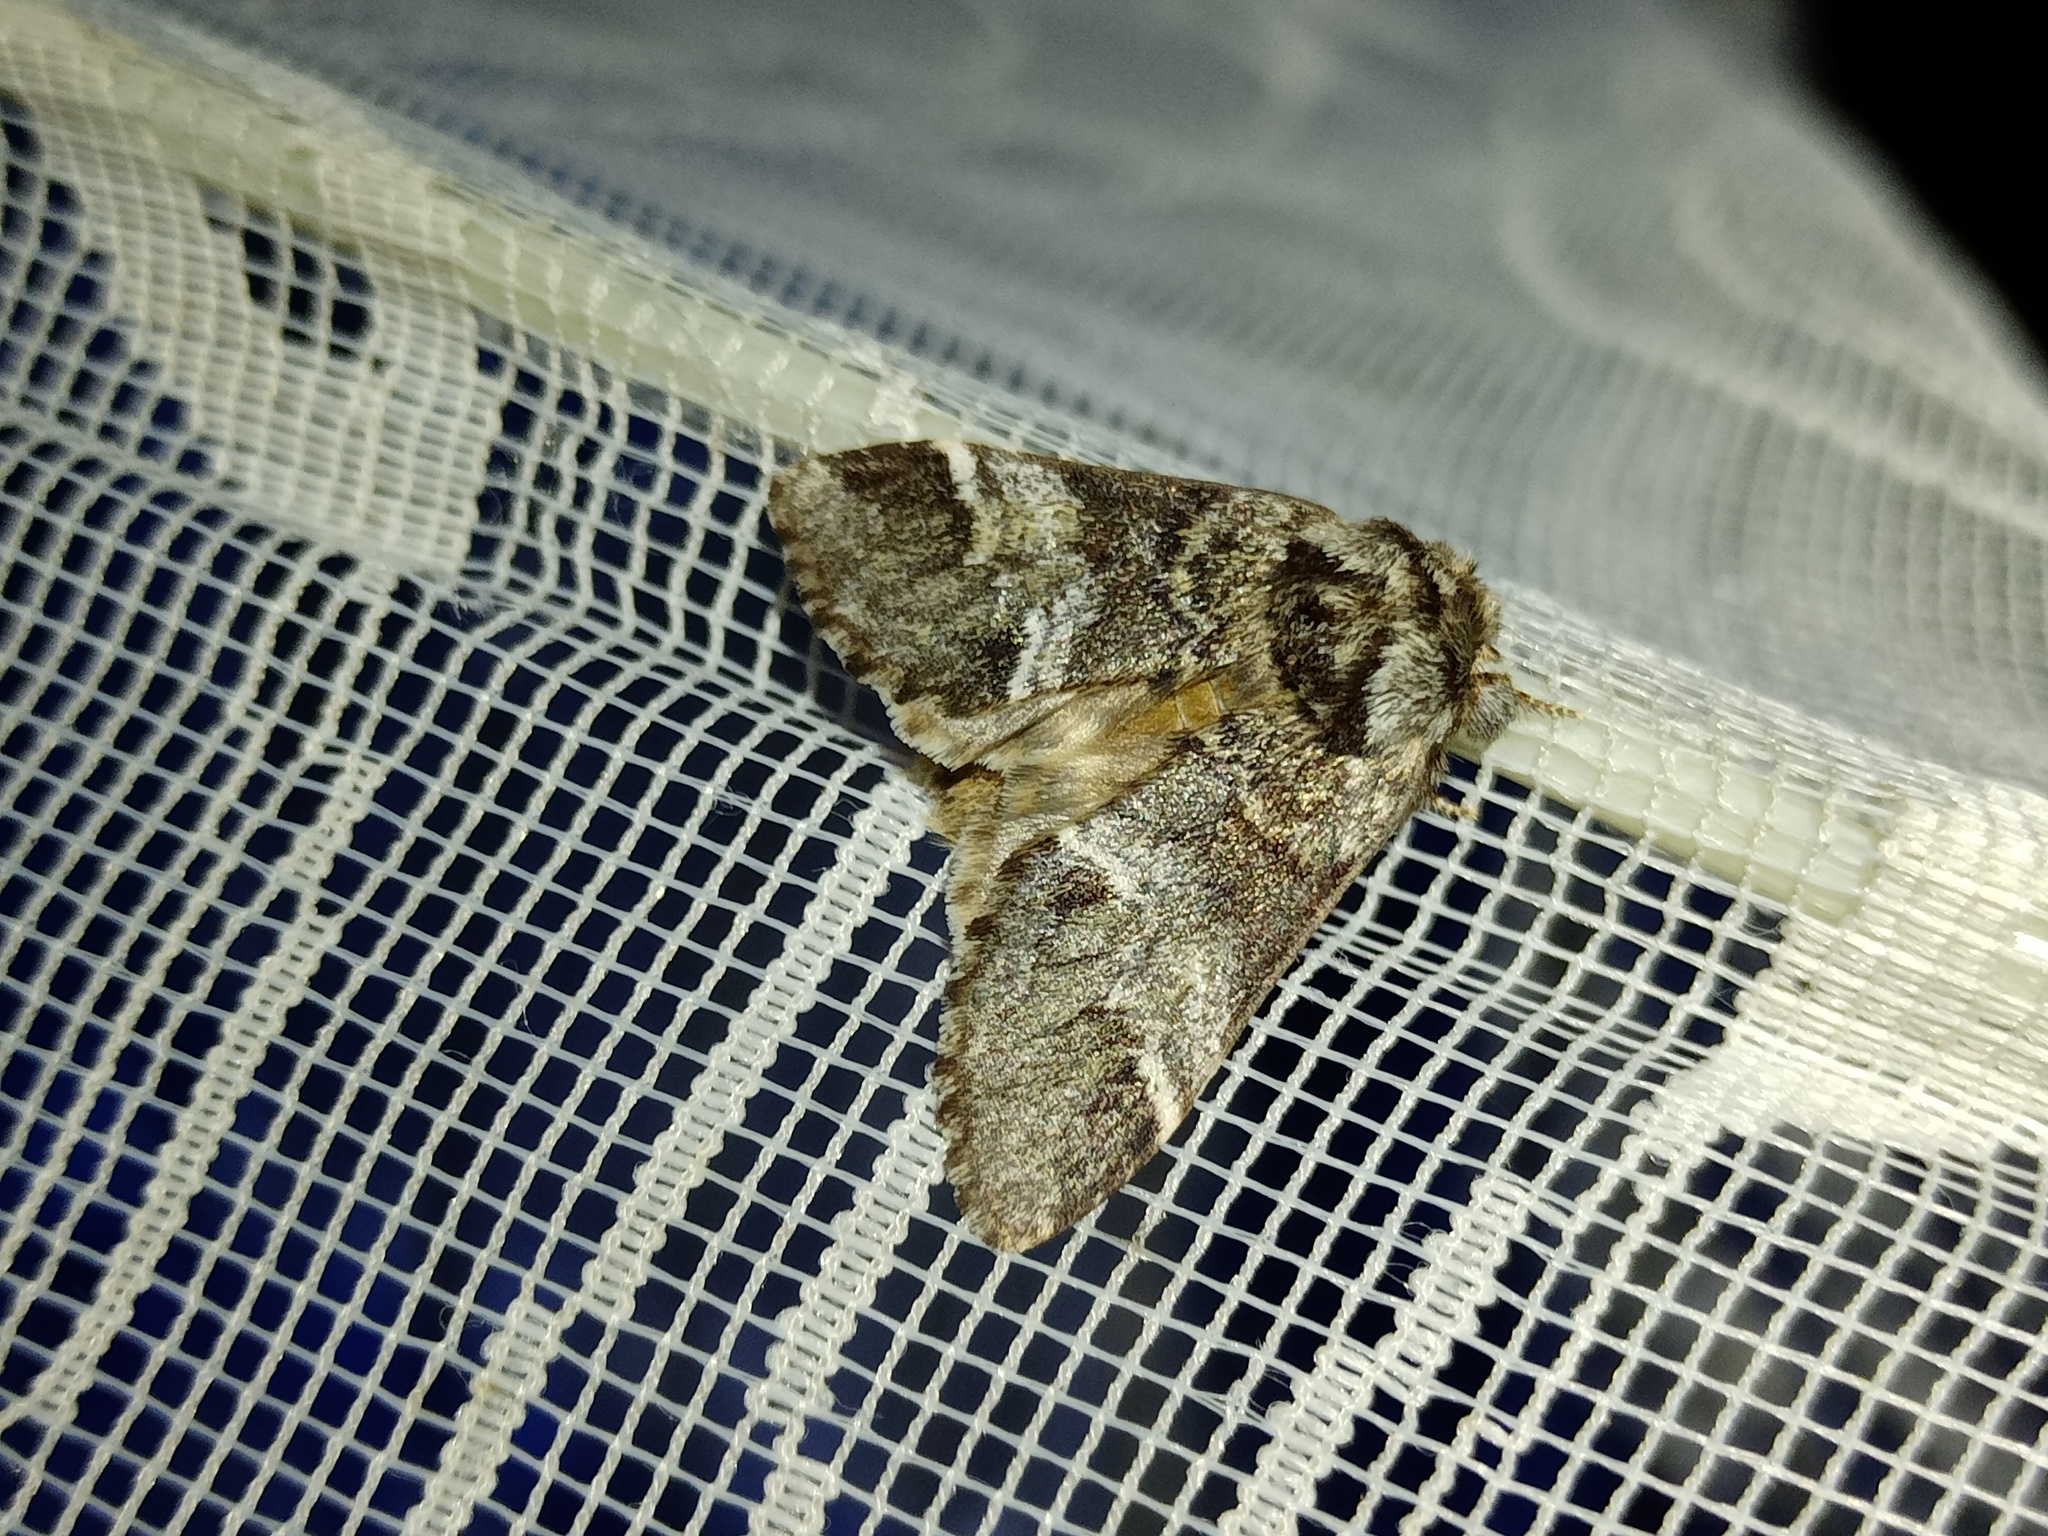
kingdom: Animalia
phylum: Arthropoda
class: Insecta
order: Lepidoptera
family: Notodontidae
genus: Drymonia
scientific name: Drymonia dodonaea
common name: Marbled brown
